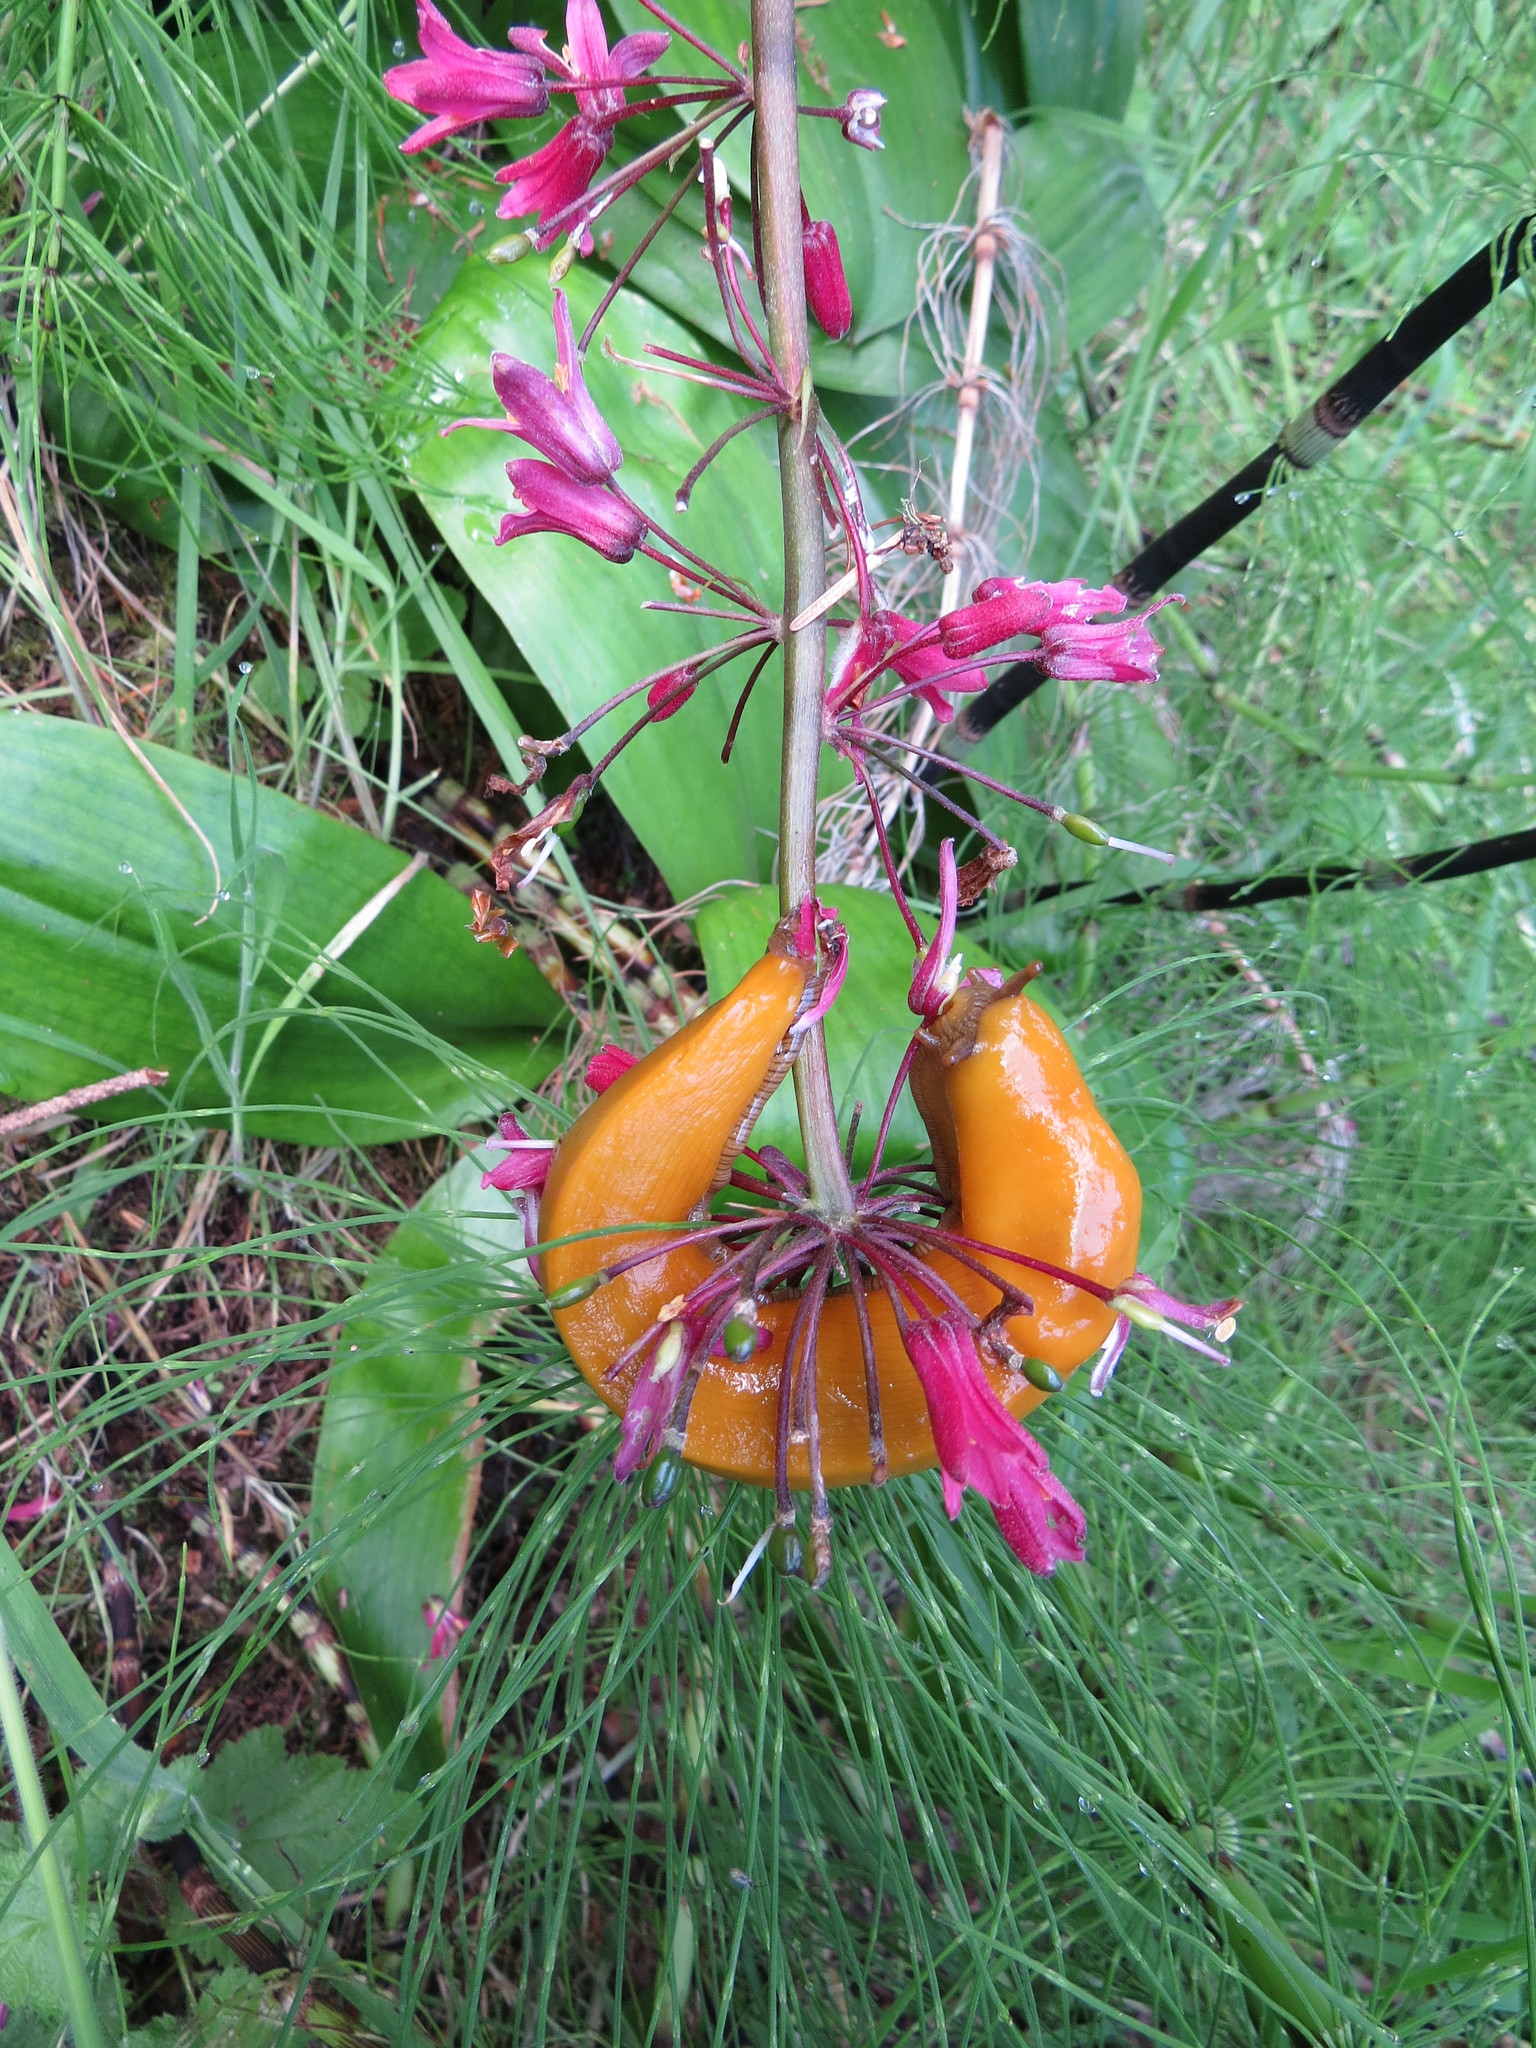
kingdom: Plantae
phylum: Tracheophyta
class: Liliopsida
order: Liliales
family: Liliaceae
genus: Clintonia
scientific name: Clintonia andrewsiana
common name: Red clintonia
